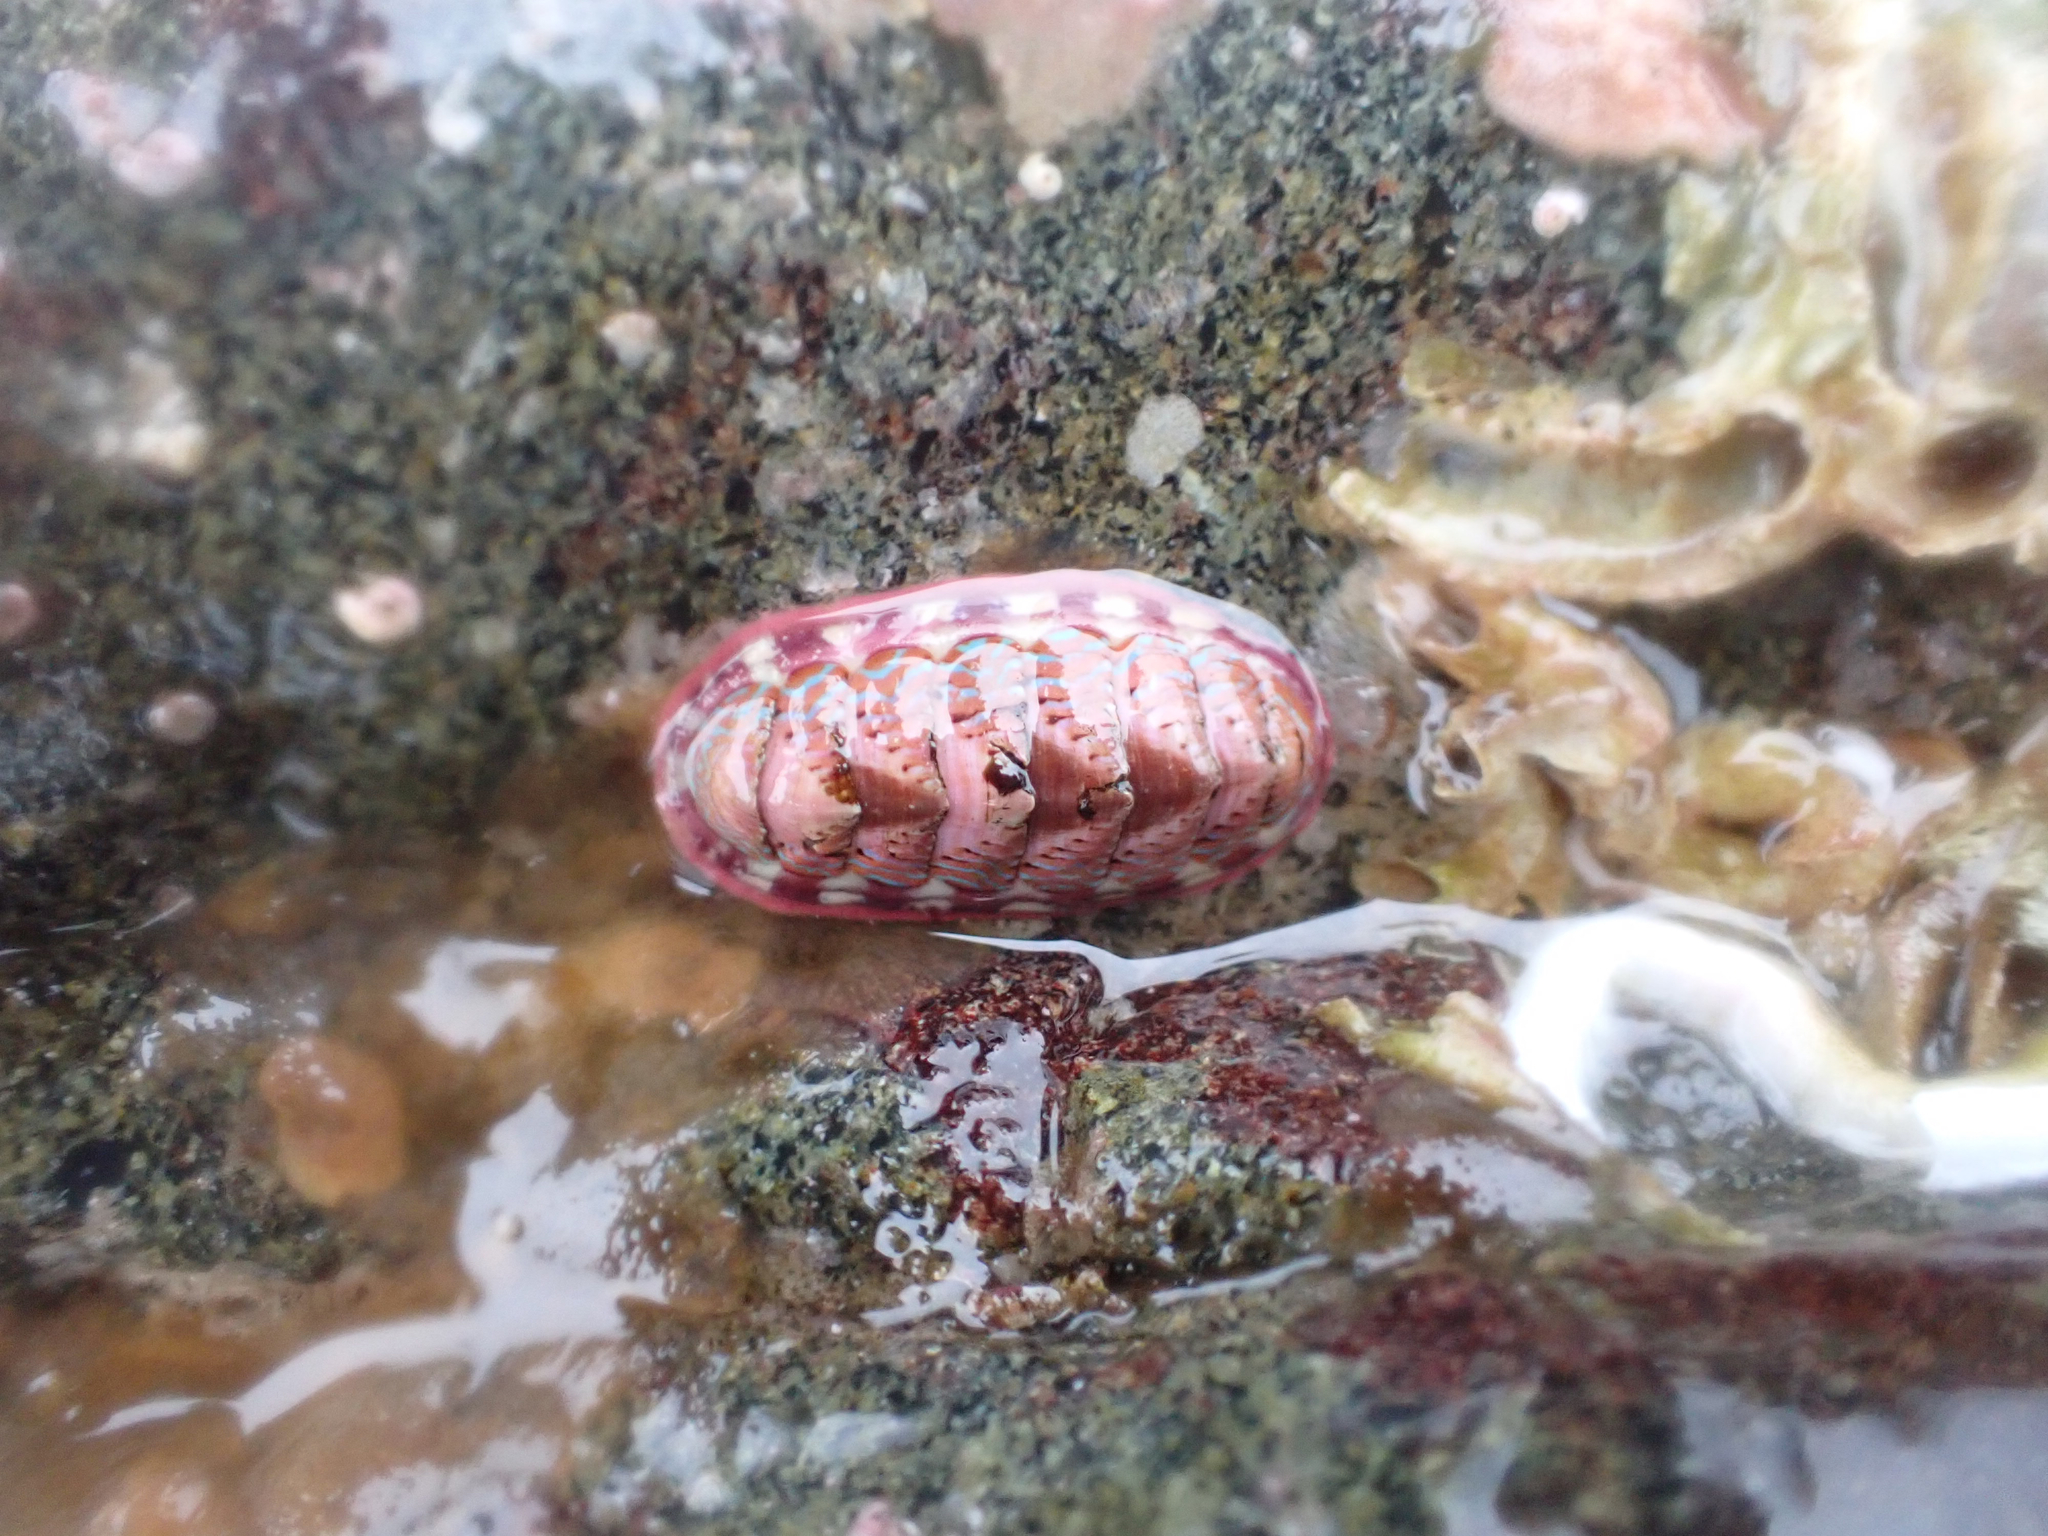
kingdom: Animalia
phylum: Mollusca
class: Polyplacophora
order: Chitonida
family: Tonicellidae
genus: Tonicella
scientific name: Tonicella undocaerulea
